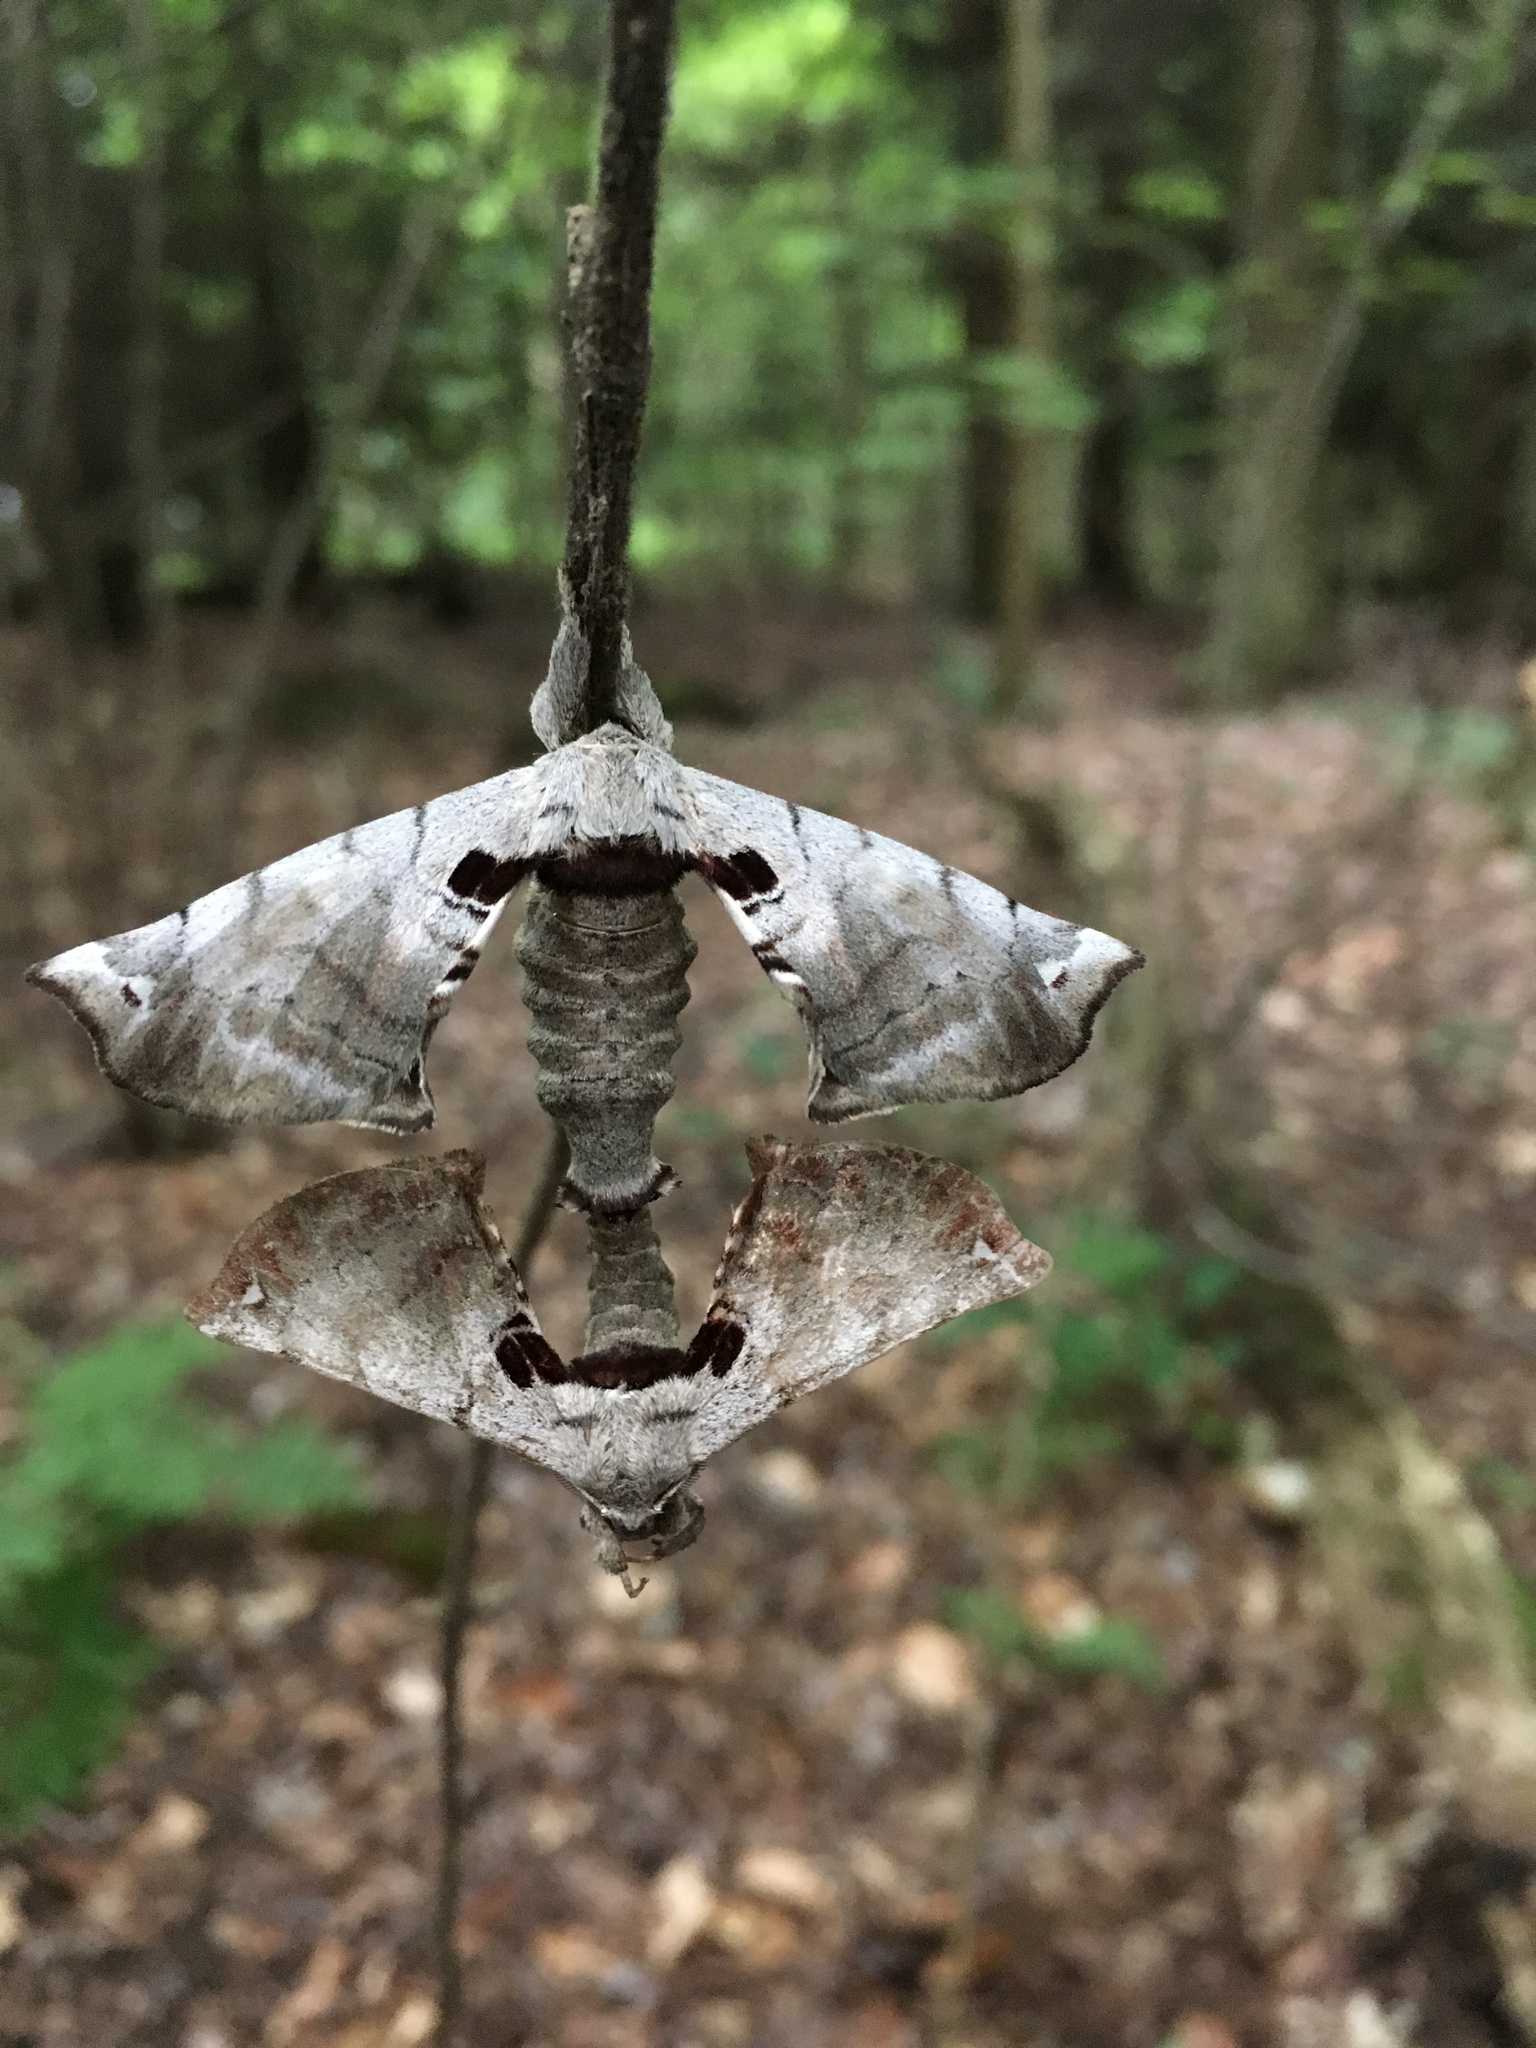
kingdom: Animalia
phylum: Arthropoda
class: Insecta
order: Lepidoptera
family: Apatelodidae
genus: Hygrochroa
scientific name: Hygrochroa Apatelodes torrefacta
